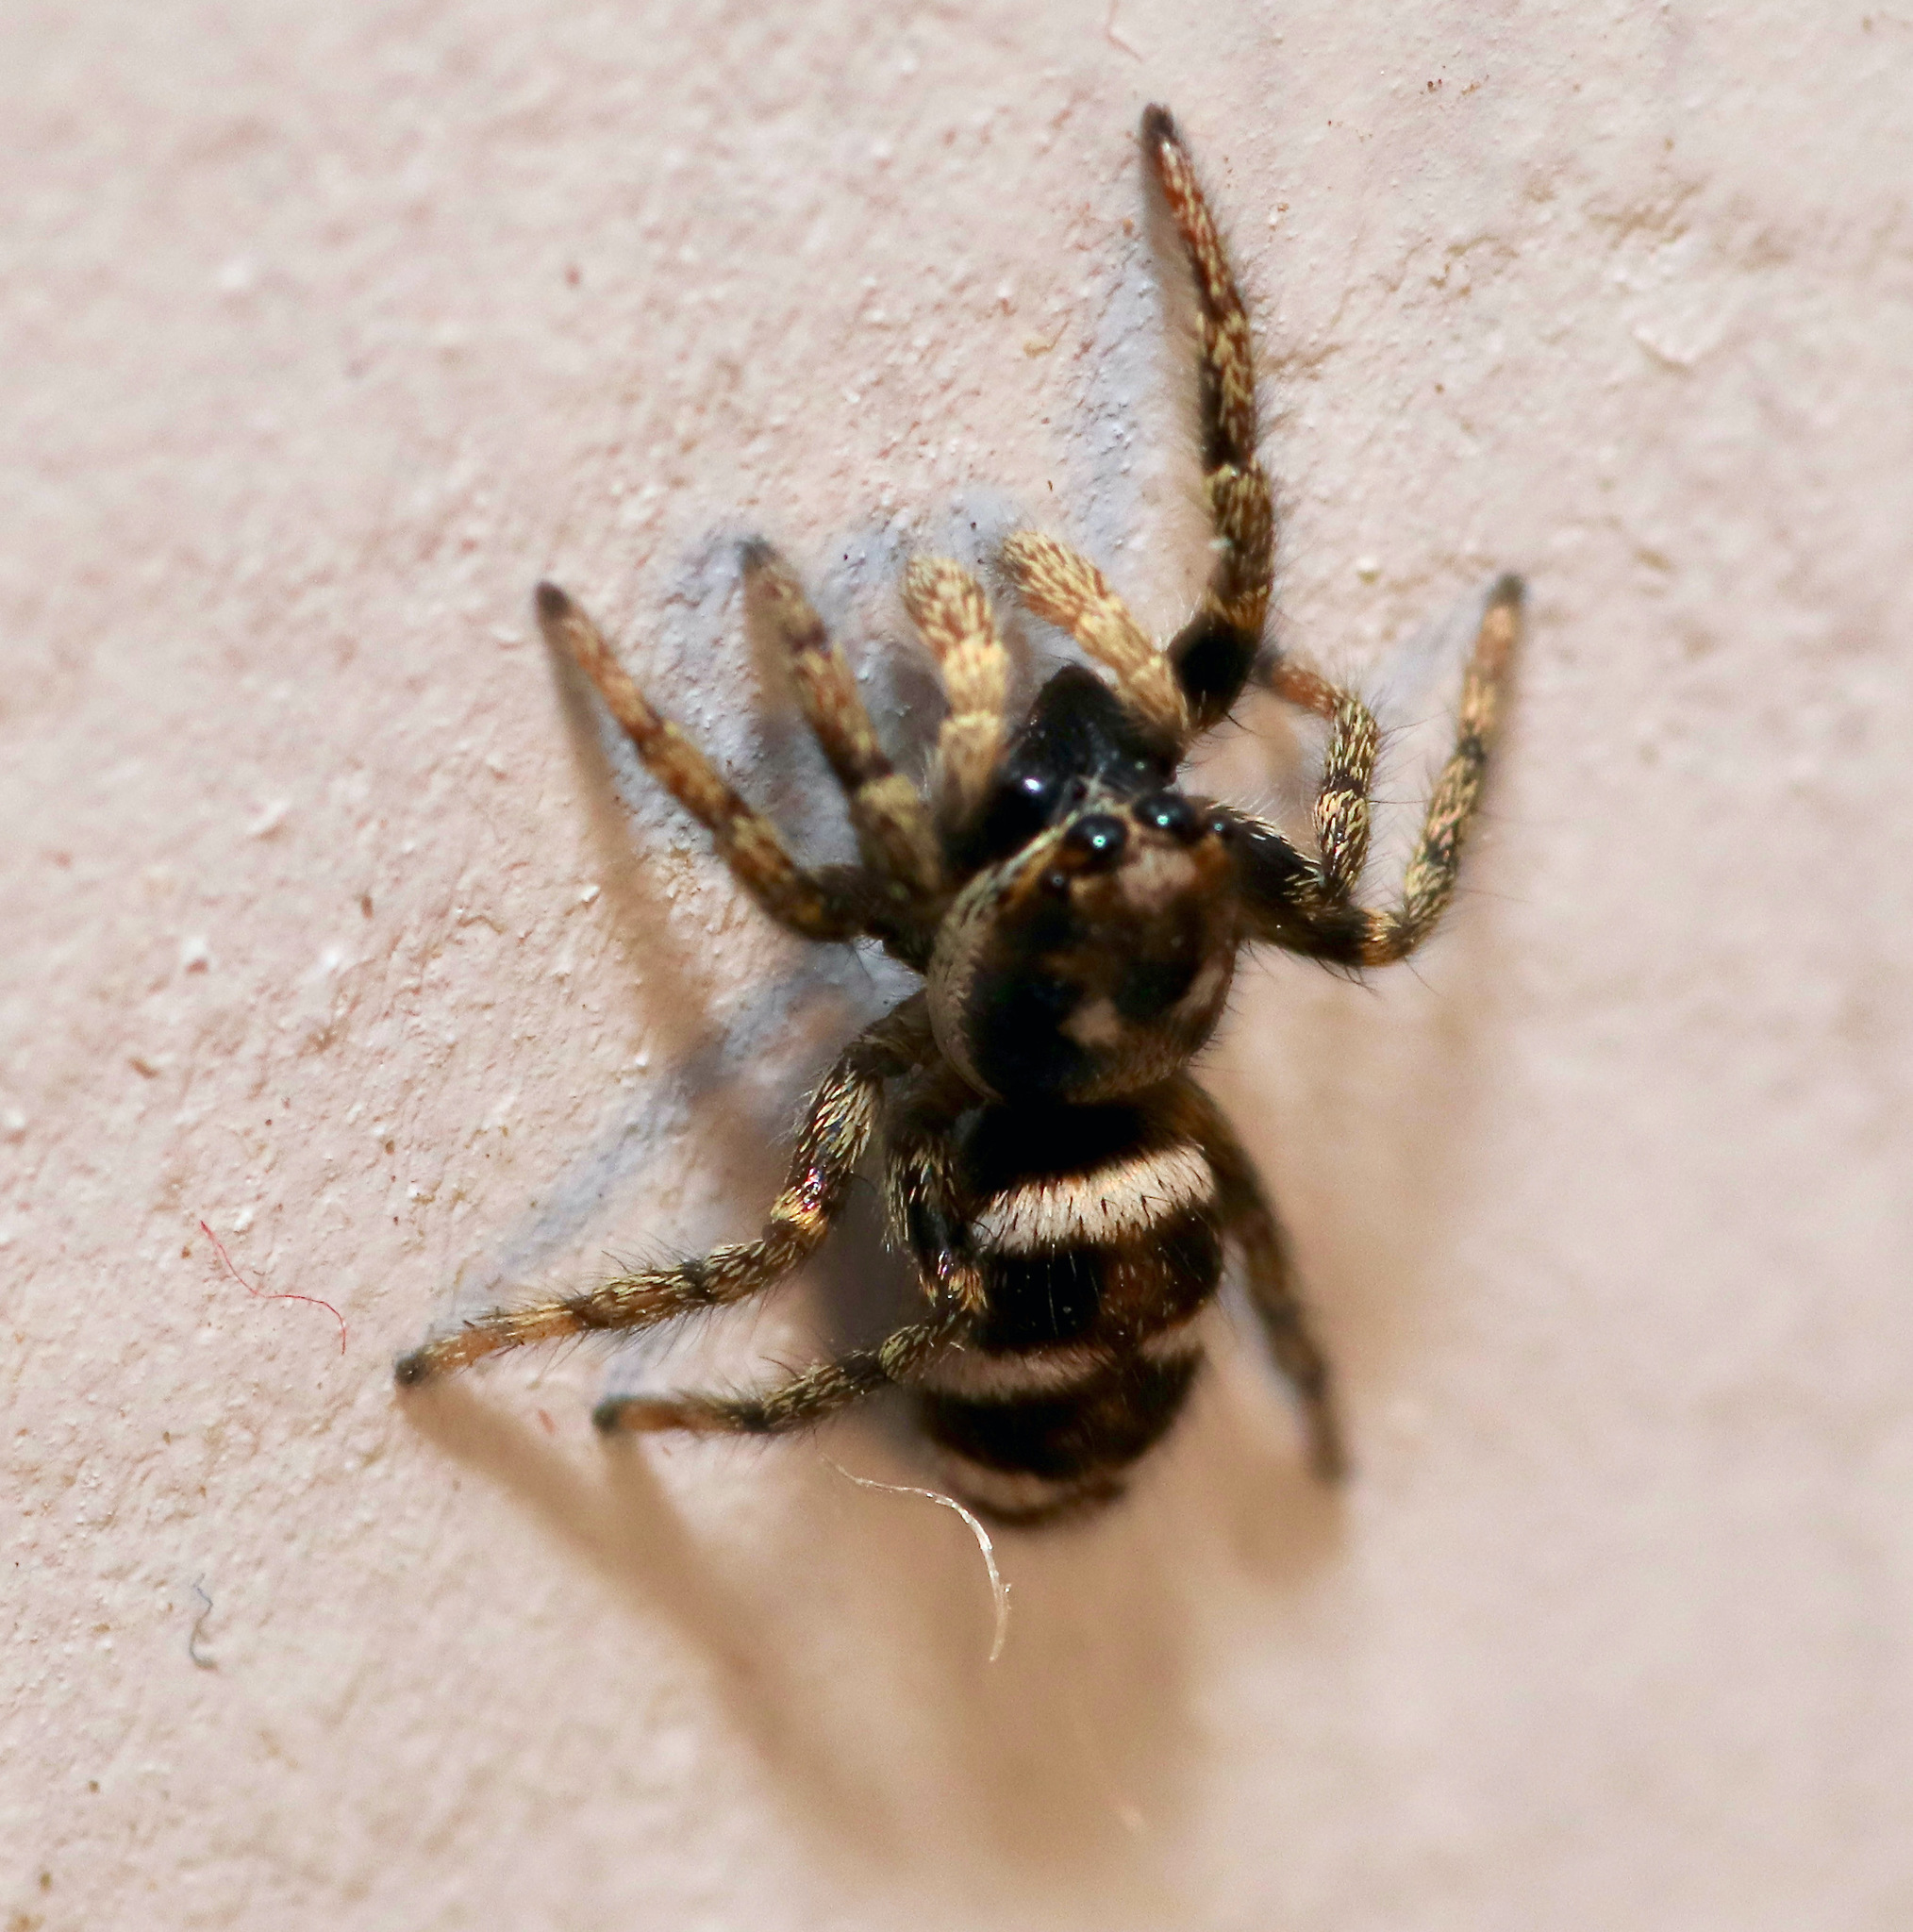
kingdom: Animalia
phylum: Arthropoda
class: Arachnida
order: Araneae
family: Salticidae
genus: Salticus
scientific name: Salticus scenicus
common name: Zebra jumper
